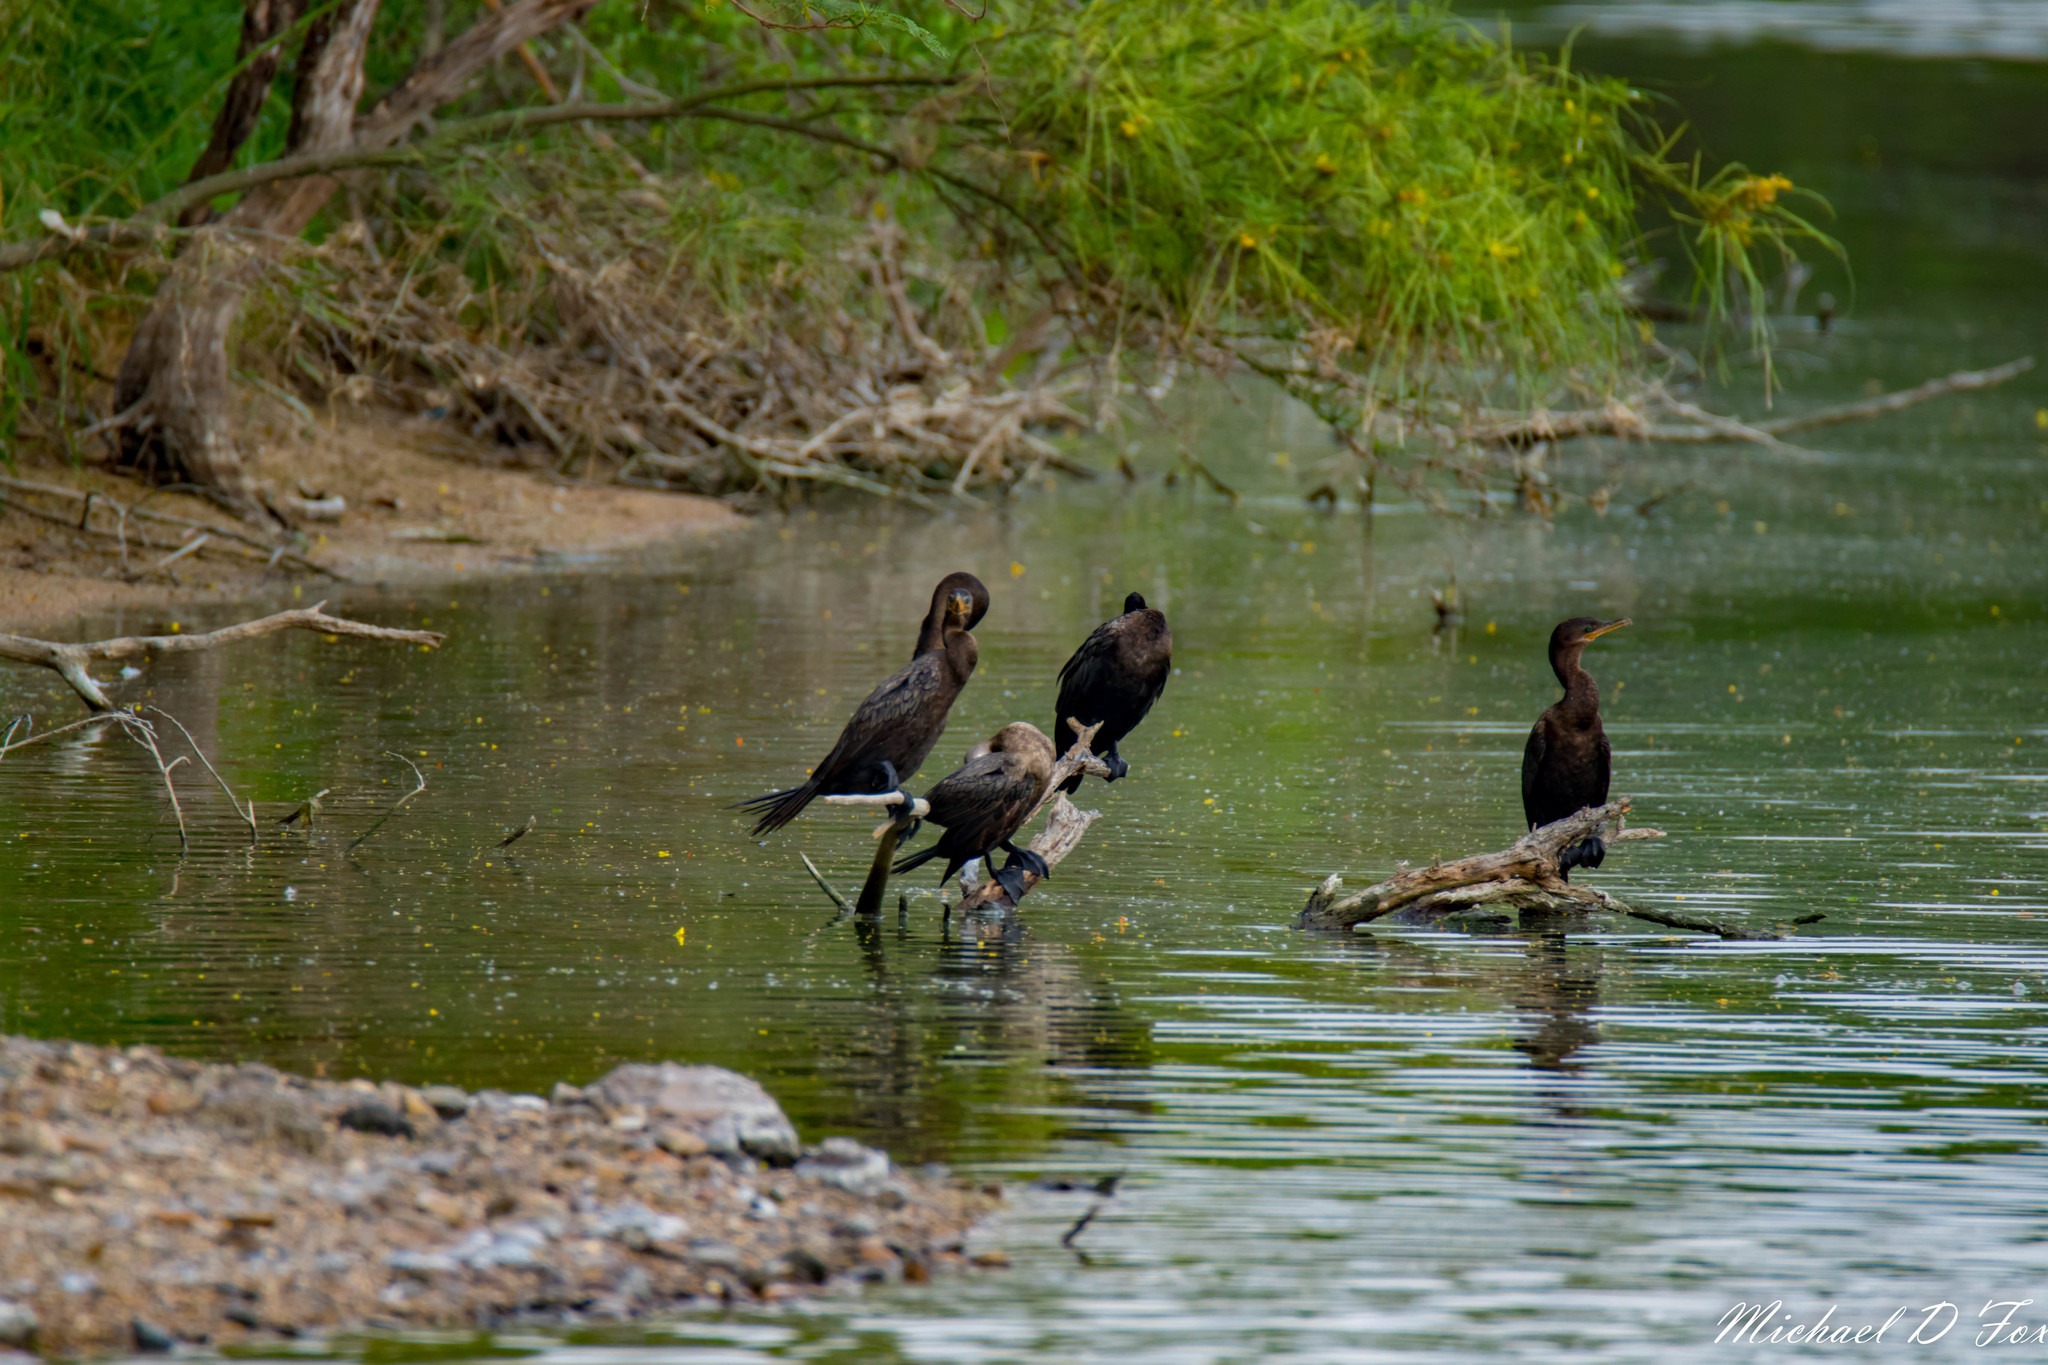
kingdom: Animalia
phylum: Chordata
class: Aves
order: Suliformes
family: Phalacrocoracidae
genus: Phalacrocorax
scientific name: Phalacrocorax brasilianus
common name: Neotropic cormorant
